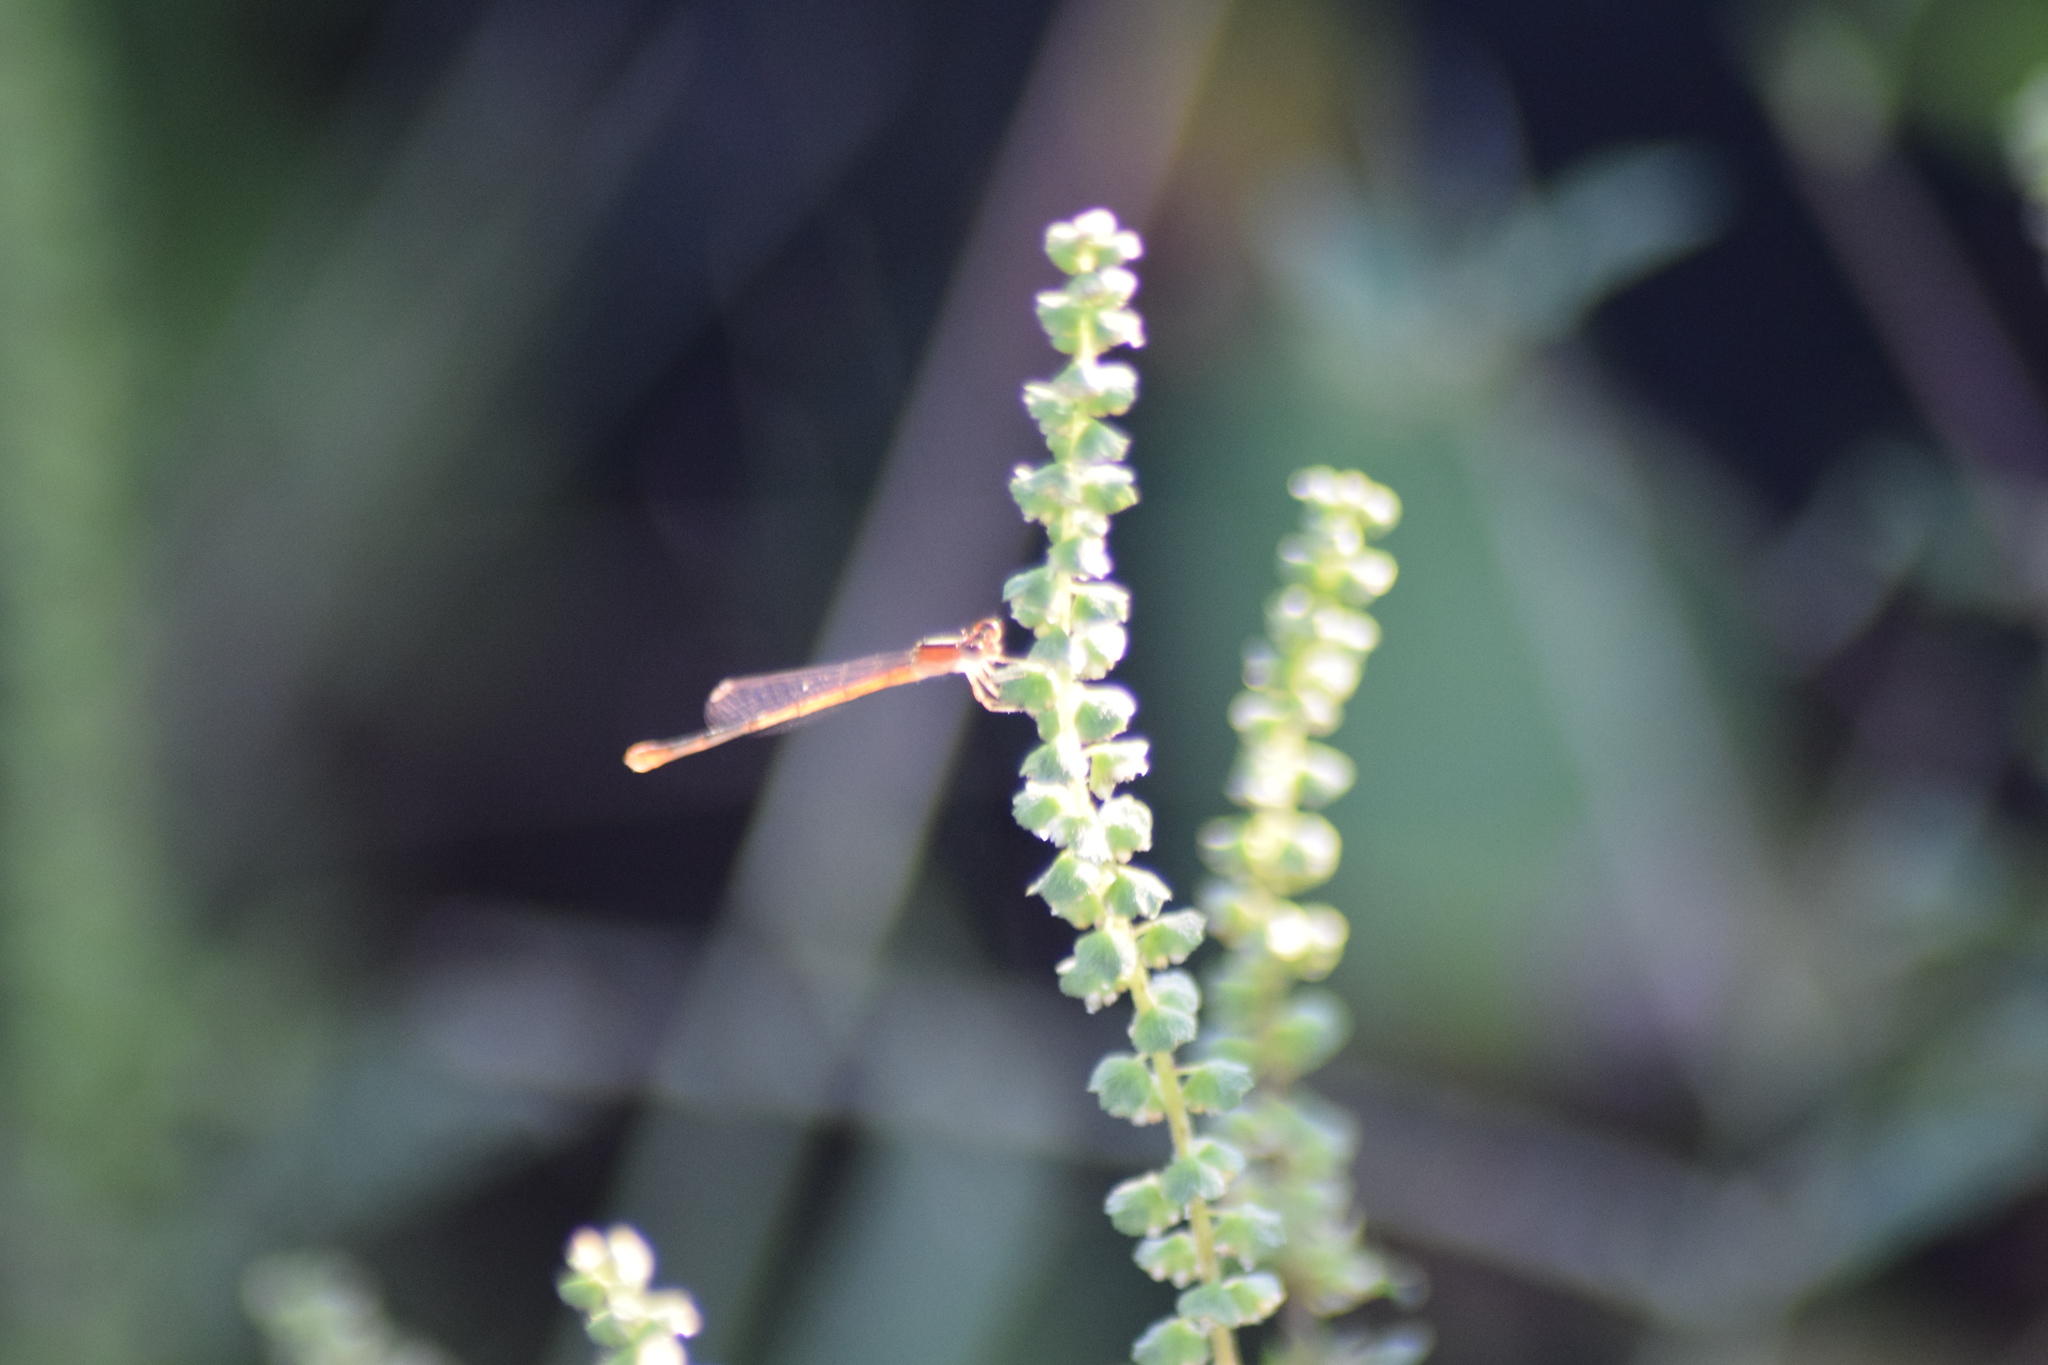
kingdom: Animalia
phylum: Arthropoda
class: Insecta
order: Odonata
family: Coenagrionidae
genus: Ischnura
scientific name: Ischnura hastata
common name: Citrine forktail
